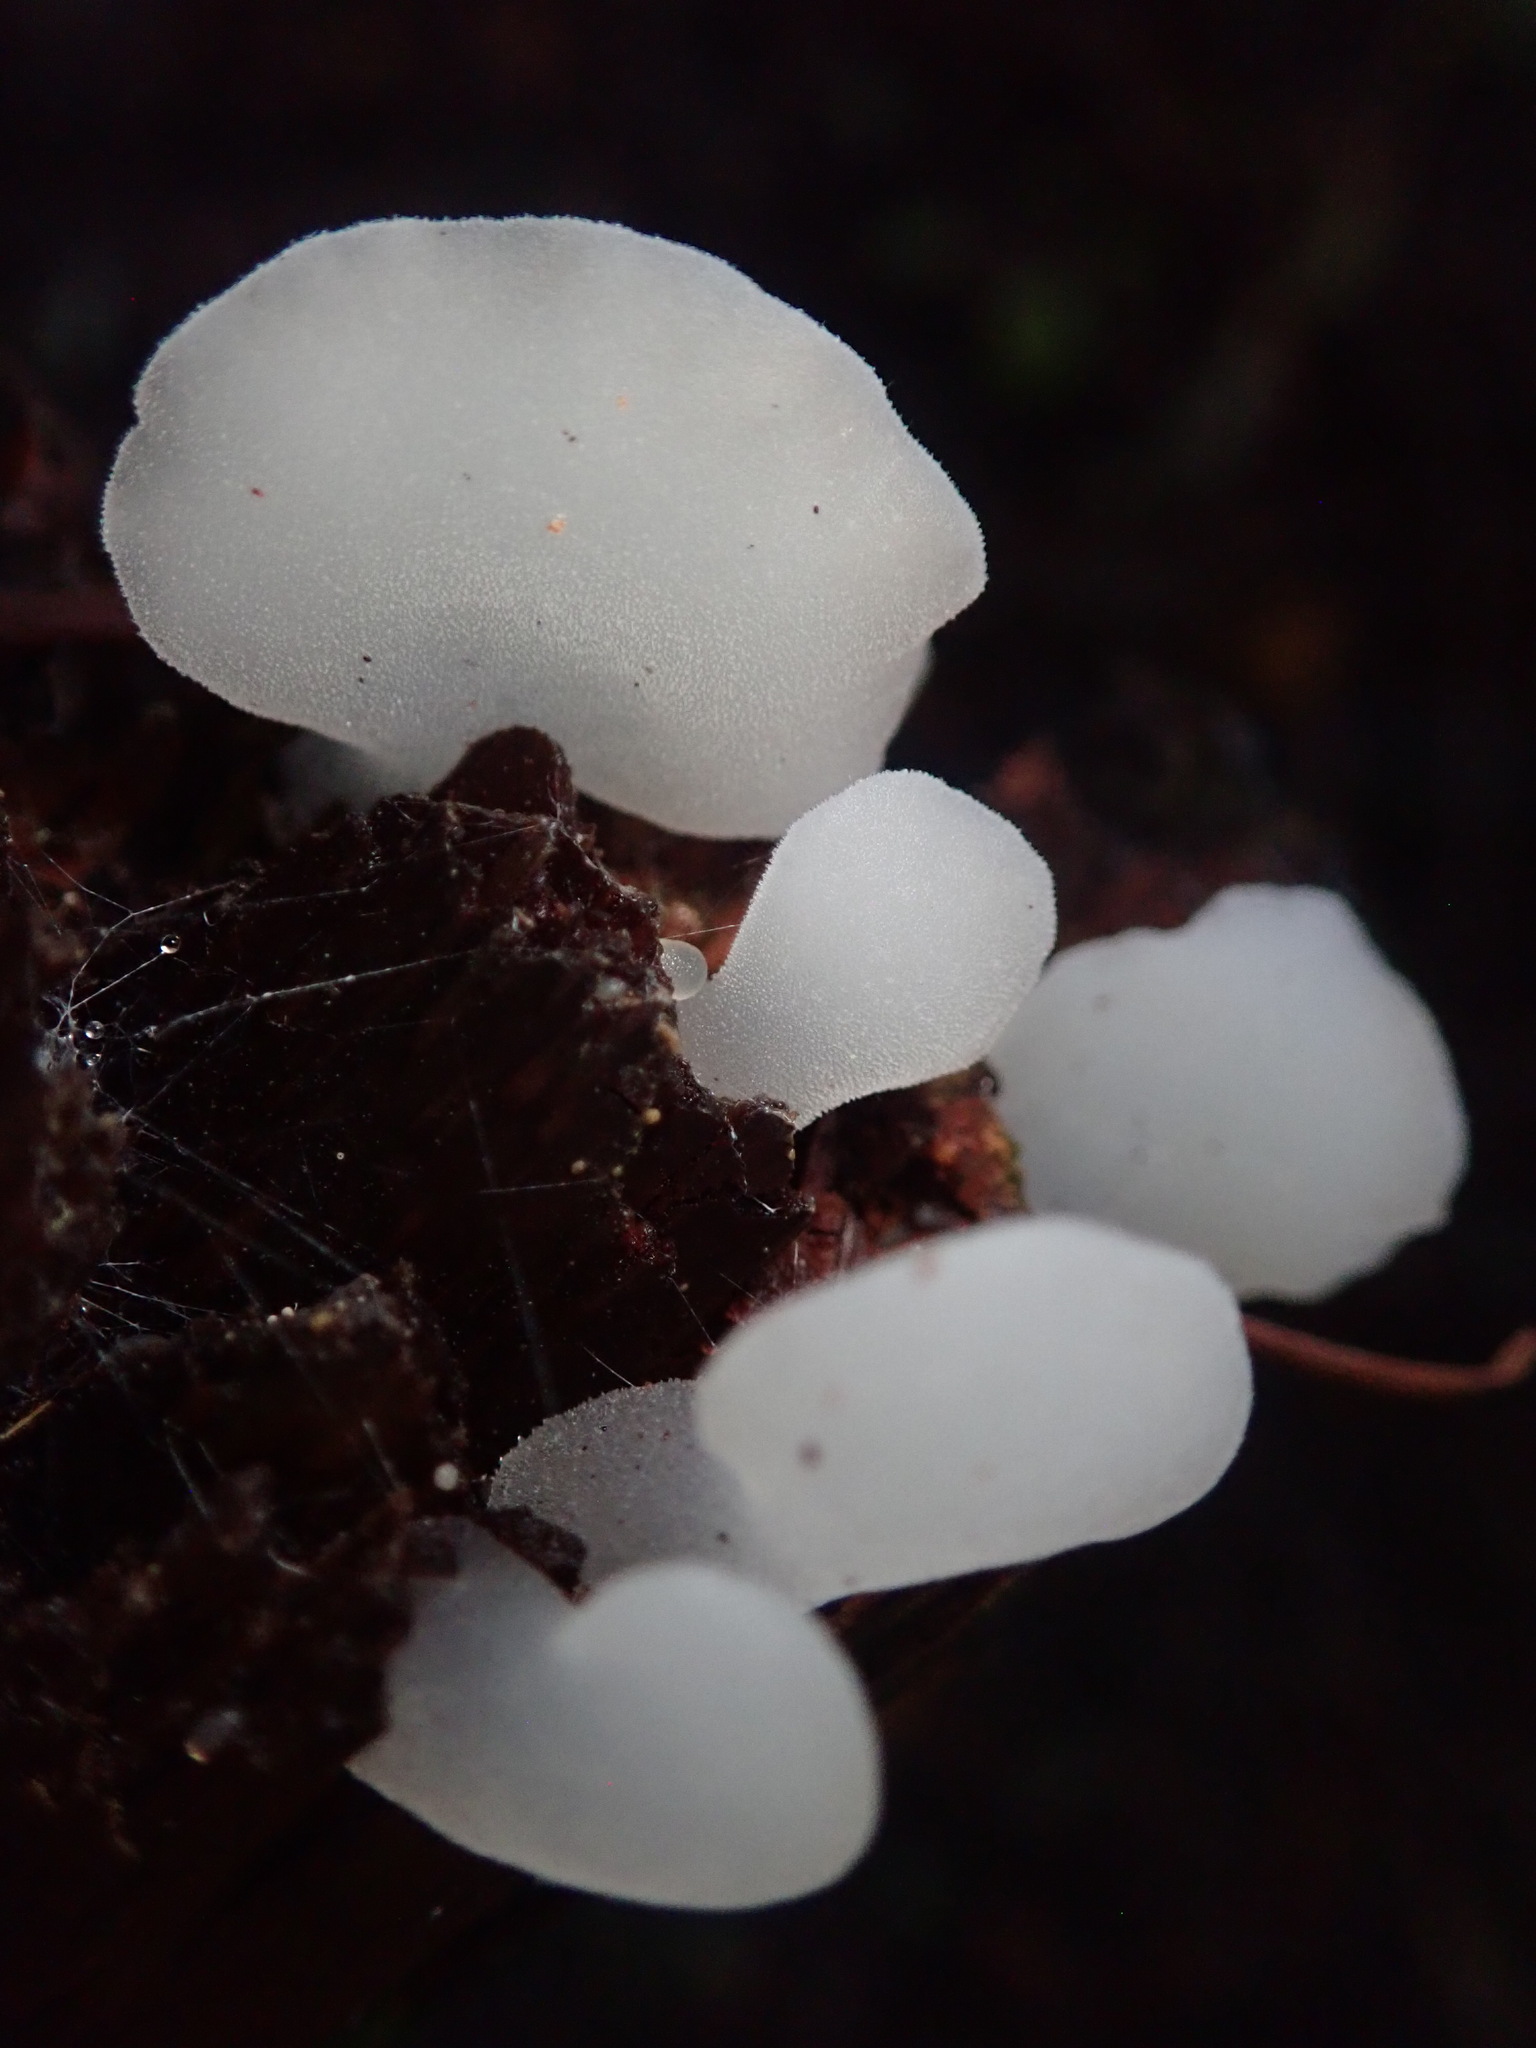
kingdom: Fungi
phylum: Basidiomycota
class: Agaricomycetes
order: Auriculariales
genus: Pseudohydnum
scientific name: Pseudohydnum gelatinosum
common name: Jelly tongue
